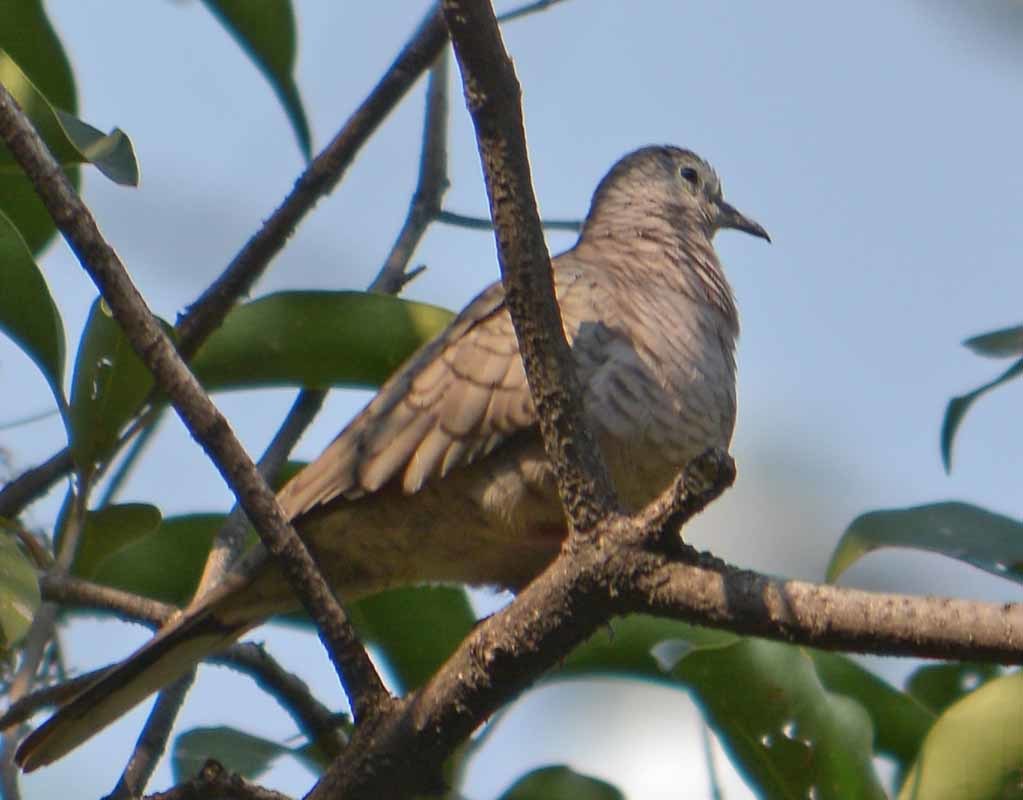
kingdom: Animalia
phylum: Chordata
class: Aves
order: Columbiformes
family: Columbidae
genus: Columbina
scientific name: Columbina inca
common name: Inca dove
